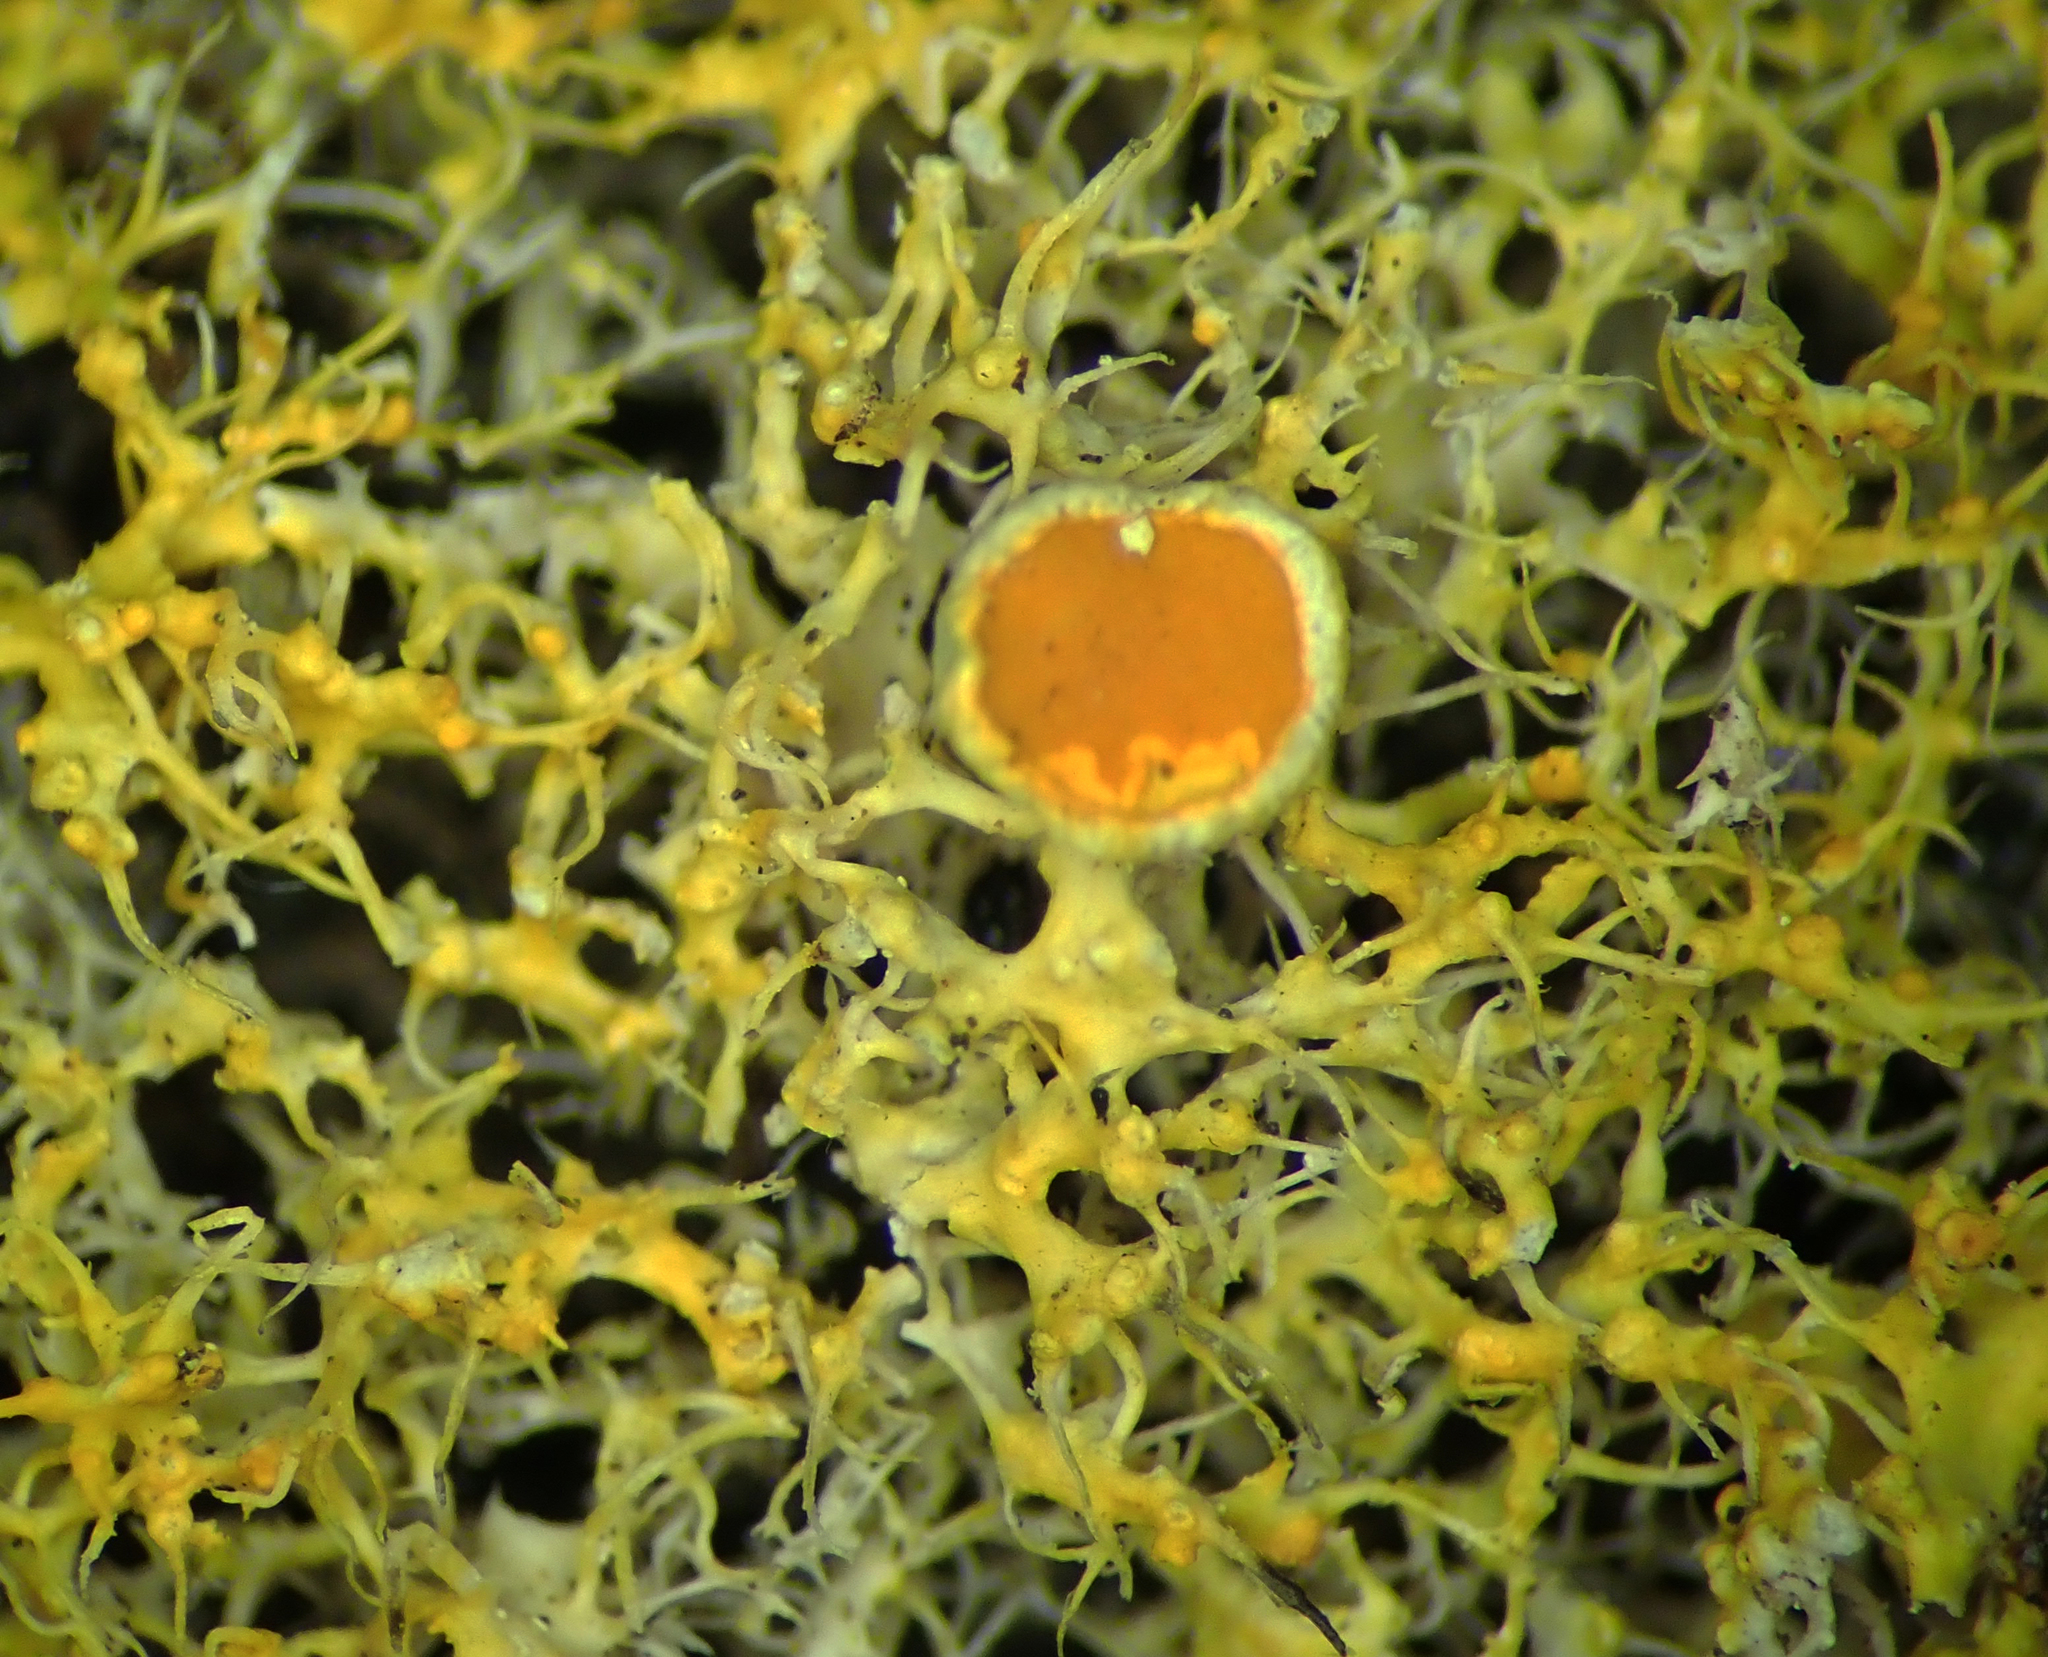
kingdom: Fungi
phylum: Ascomycota
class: Lecanoromycetes
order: Teloschistales
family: Teloschistaceae
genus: Teloschistes
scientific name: Teloschistes sieberianus
